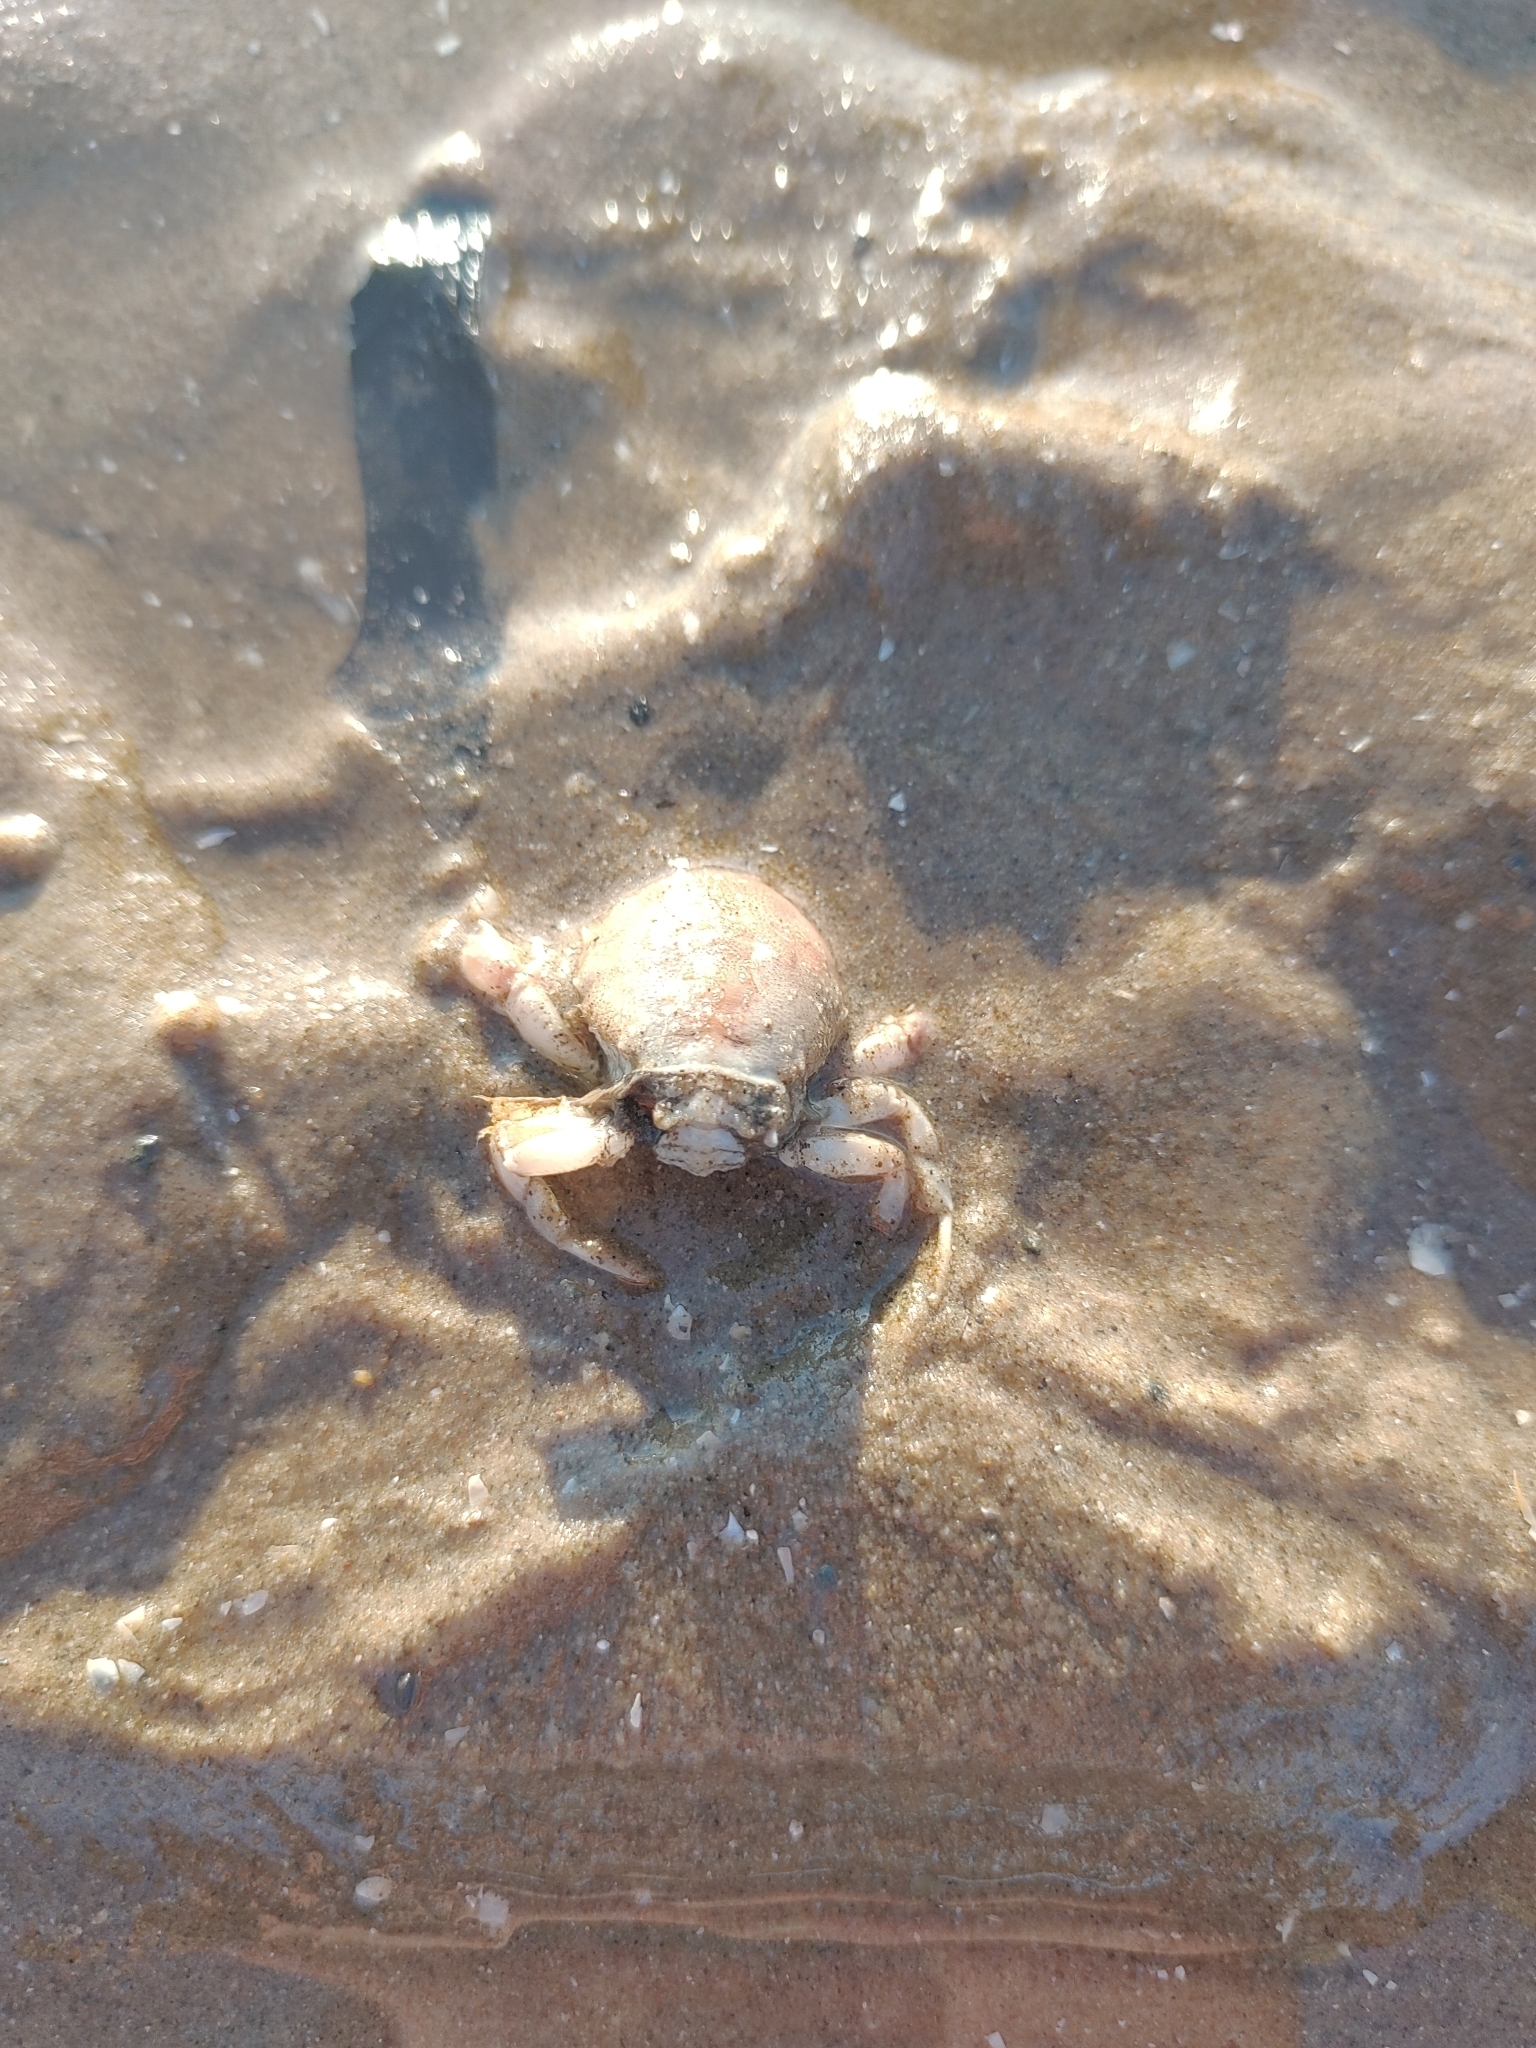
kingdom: Animalia
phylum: Arthropoda
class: Malacostraca
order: Decapoda
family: Corystidae
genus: Corystes
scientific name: Corystes cassivelaunus
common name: Masked crab
